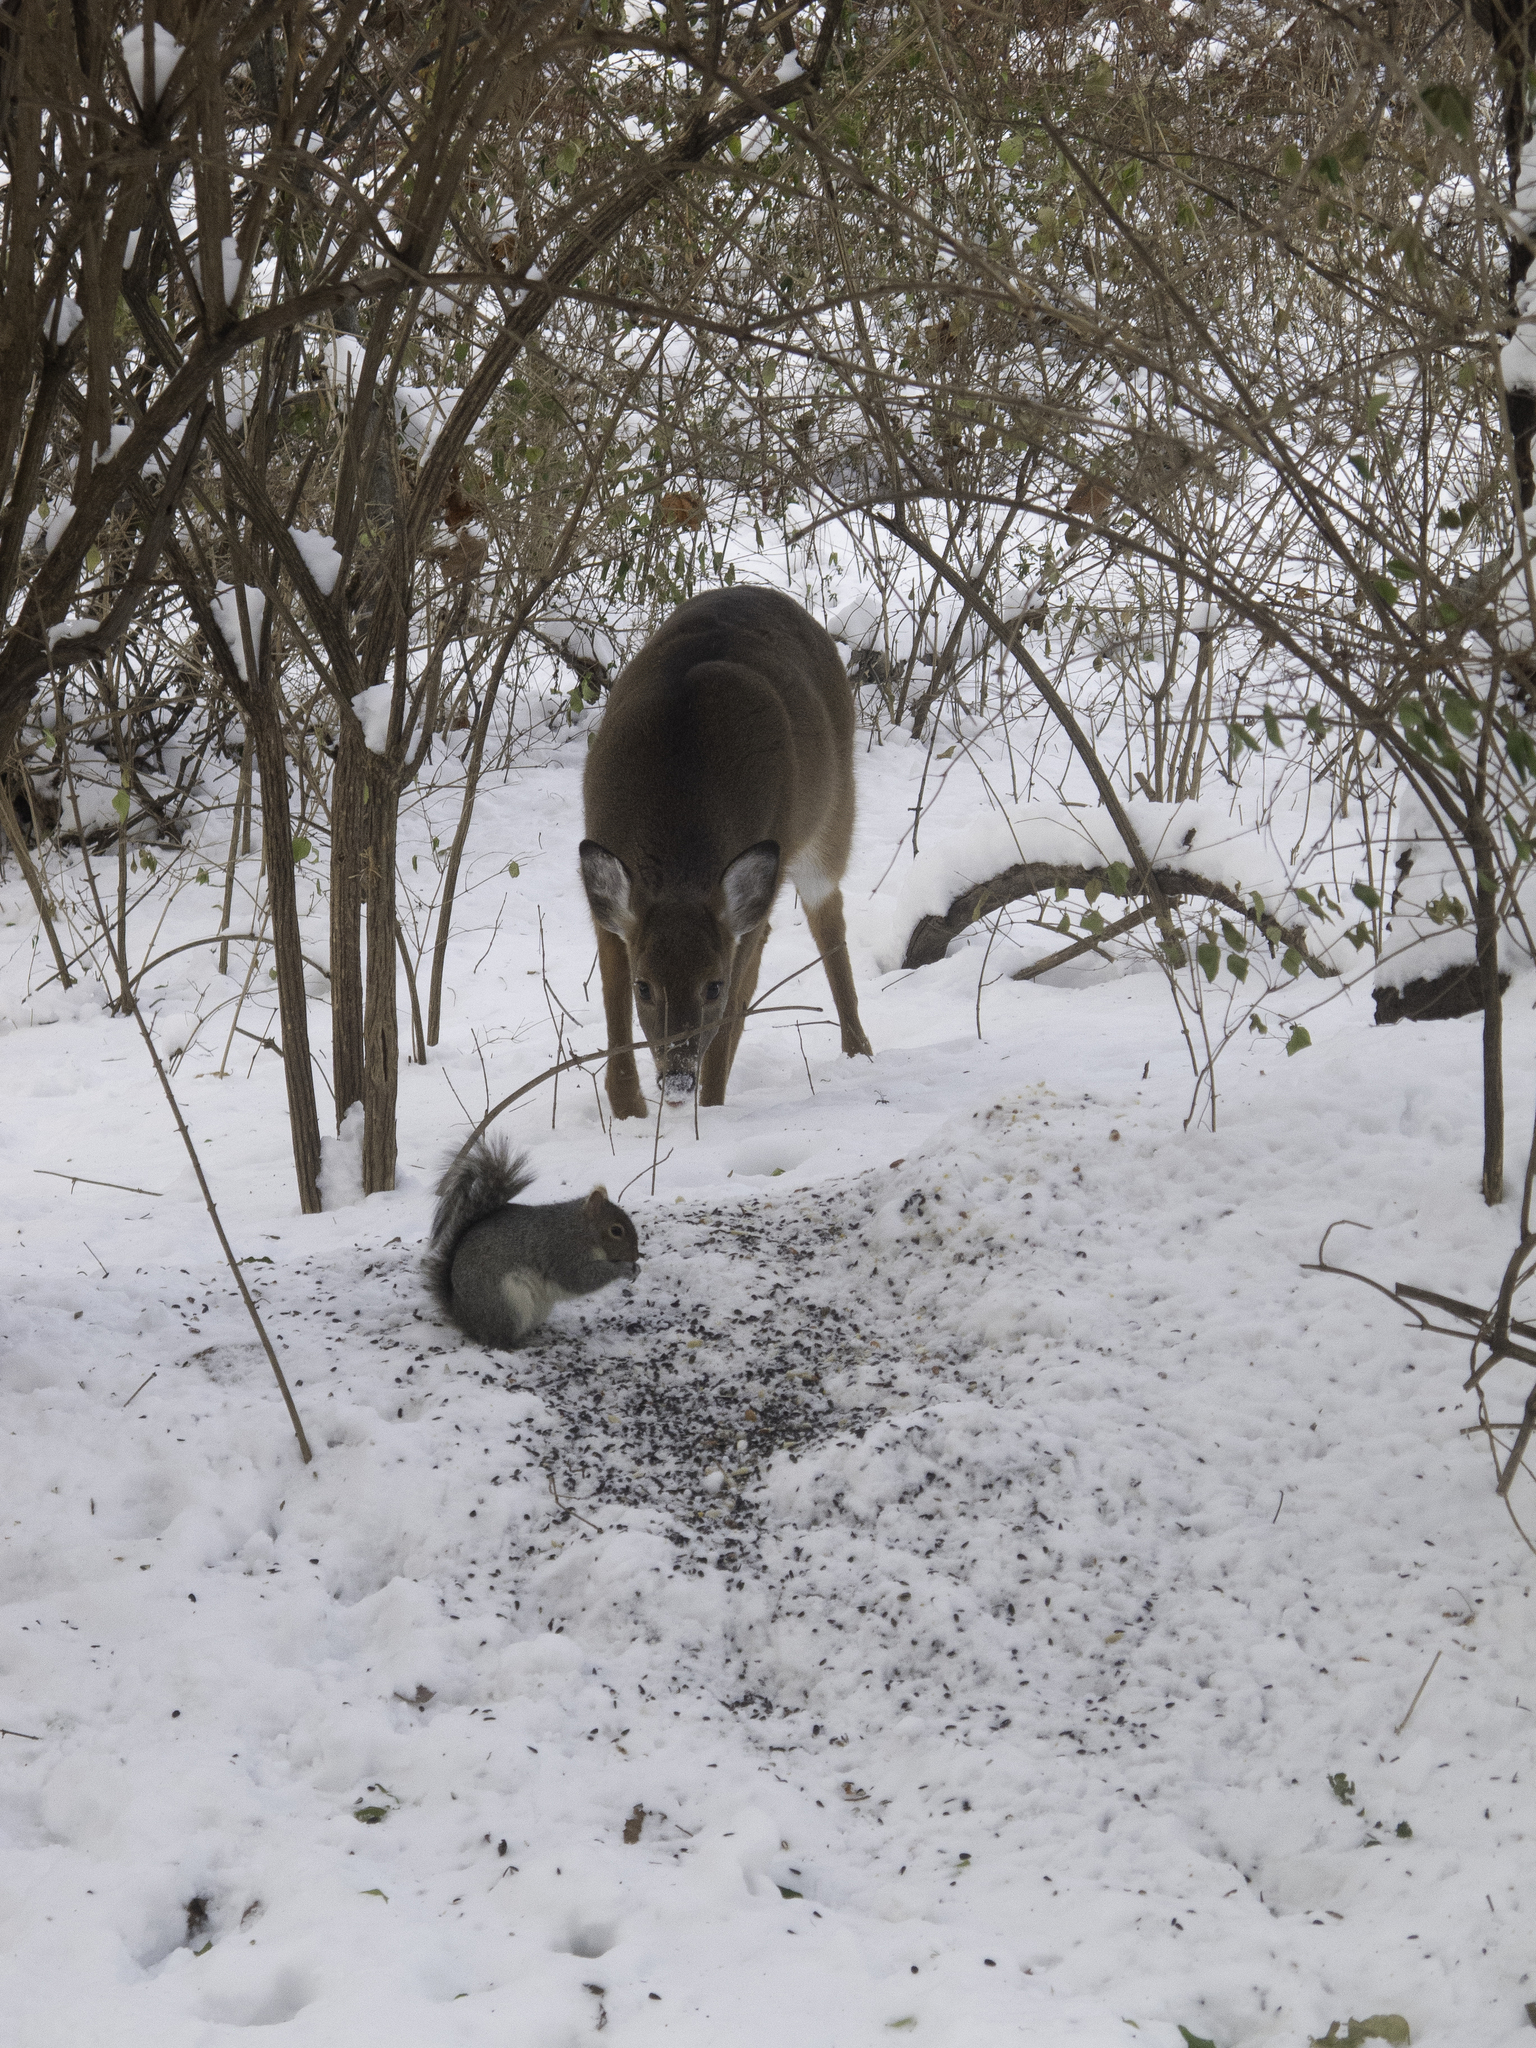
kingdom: Animalia
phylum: Chordata
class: Mammalia
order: Artiodactyla
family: Cervidae
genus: Odocoileus
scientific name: Odocoileus virginianus
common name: White-tailed deer
